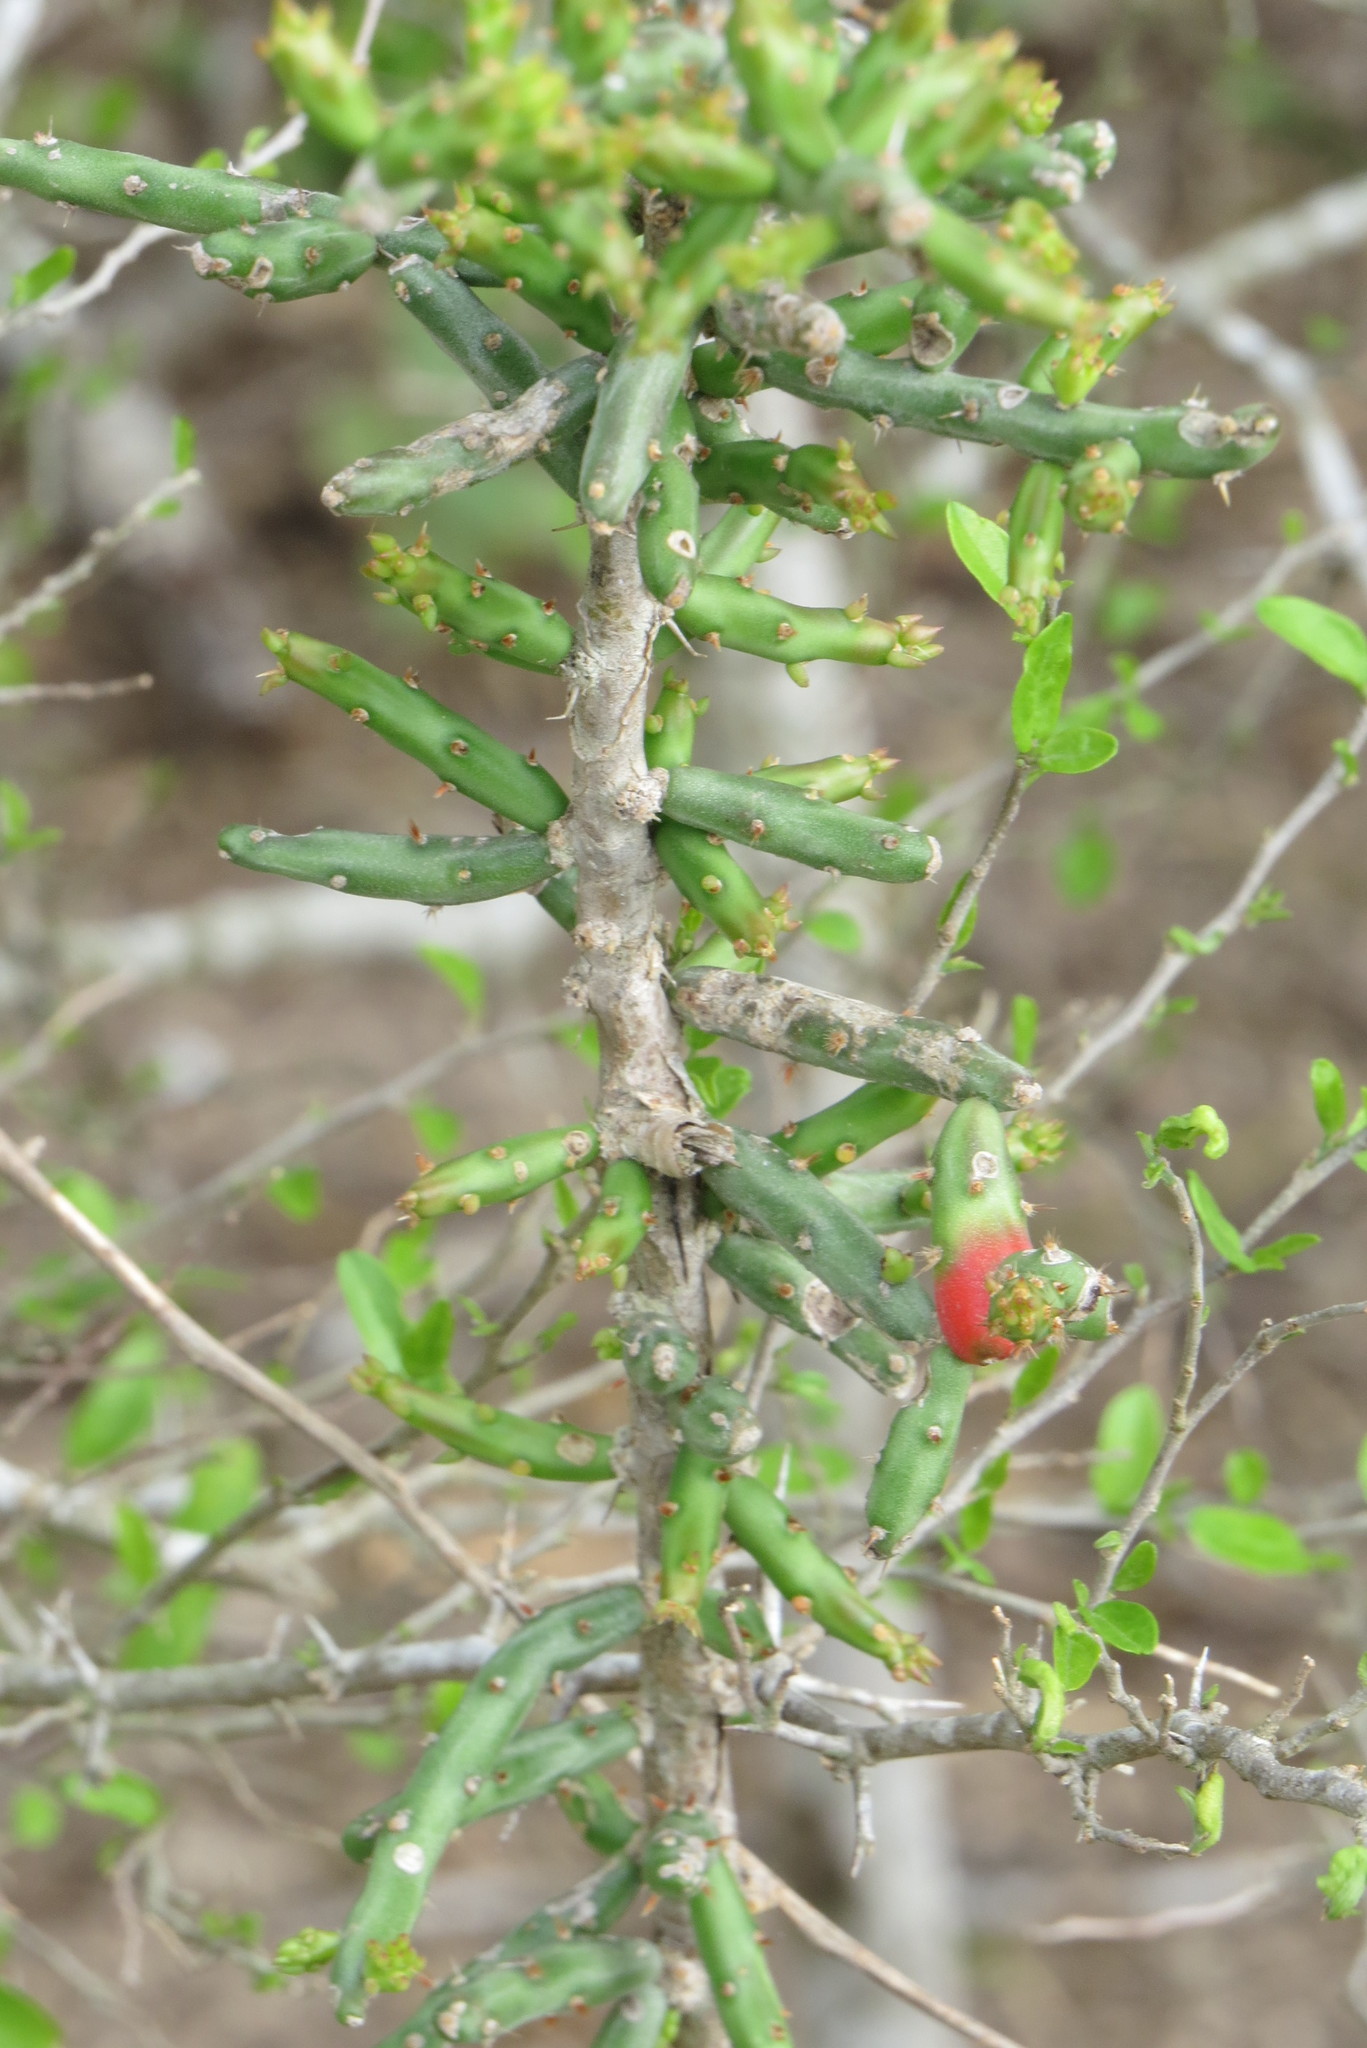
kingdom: Plantae
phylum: Tracheophyta
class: Magnoliopsida
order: Caryophyllales
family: Cactaceae
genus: Cylindropuntia
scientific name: Cylindropuntia leptocaulis
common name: Christmas cactus
